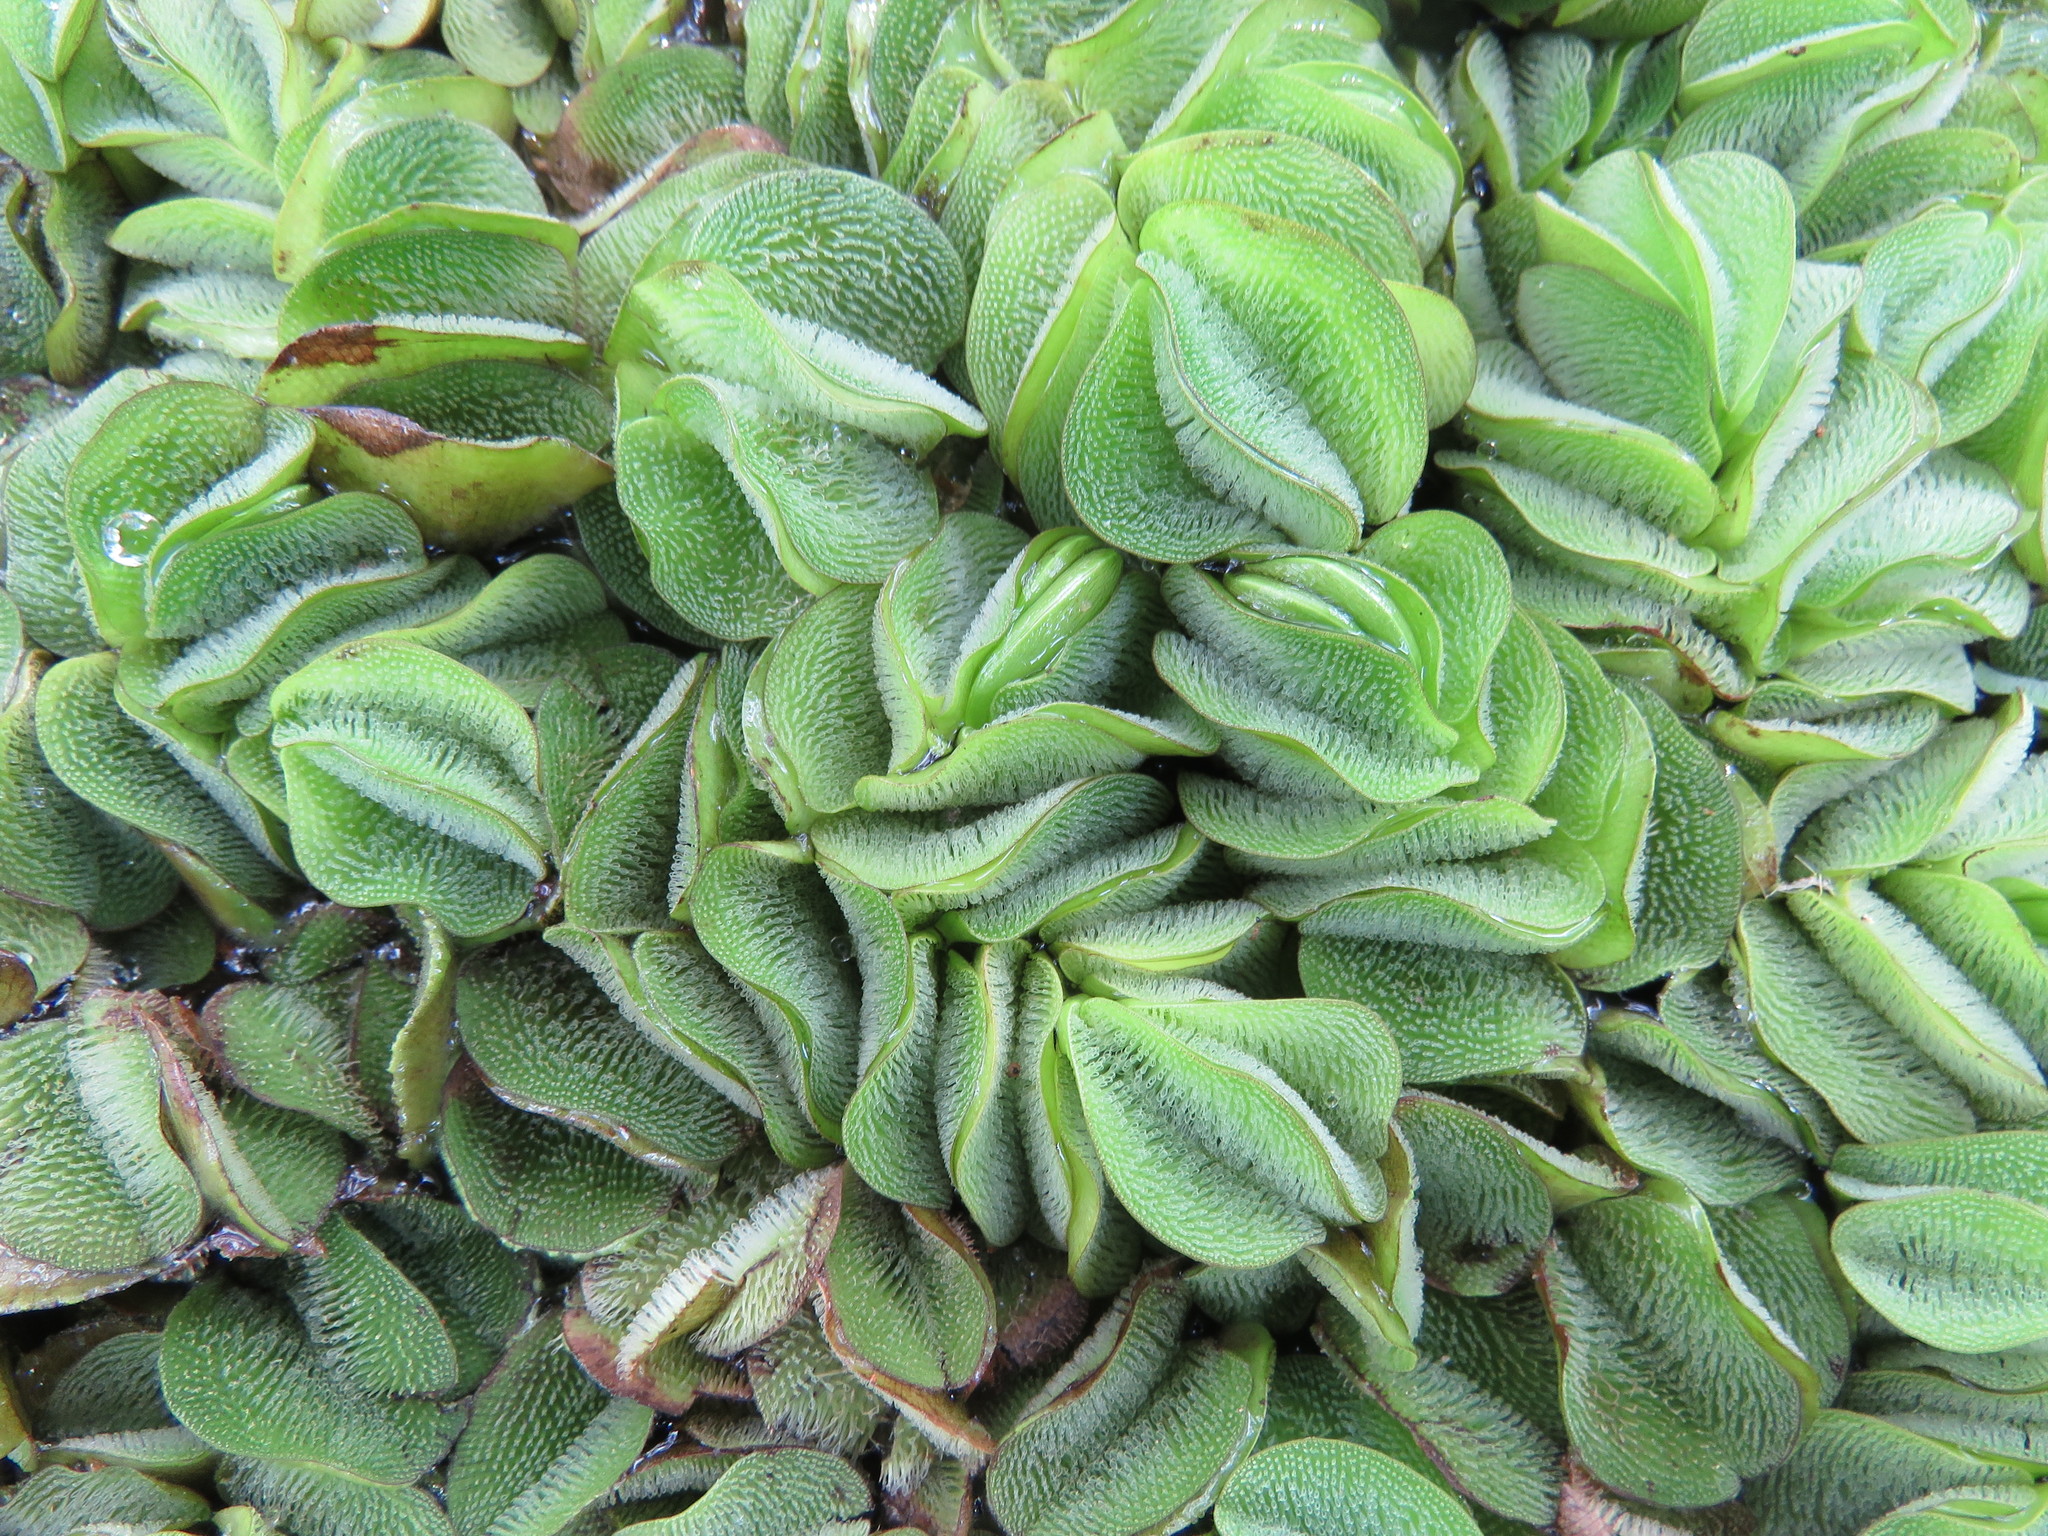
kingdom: Plantae
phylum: Tracheophyta
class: Polypodiopsida
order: Salviniales
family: Salviniaceae
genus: Salvinia
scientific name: Salvinia molesta
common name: Kariba weed
